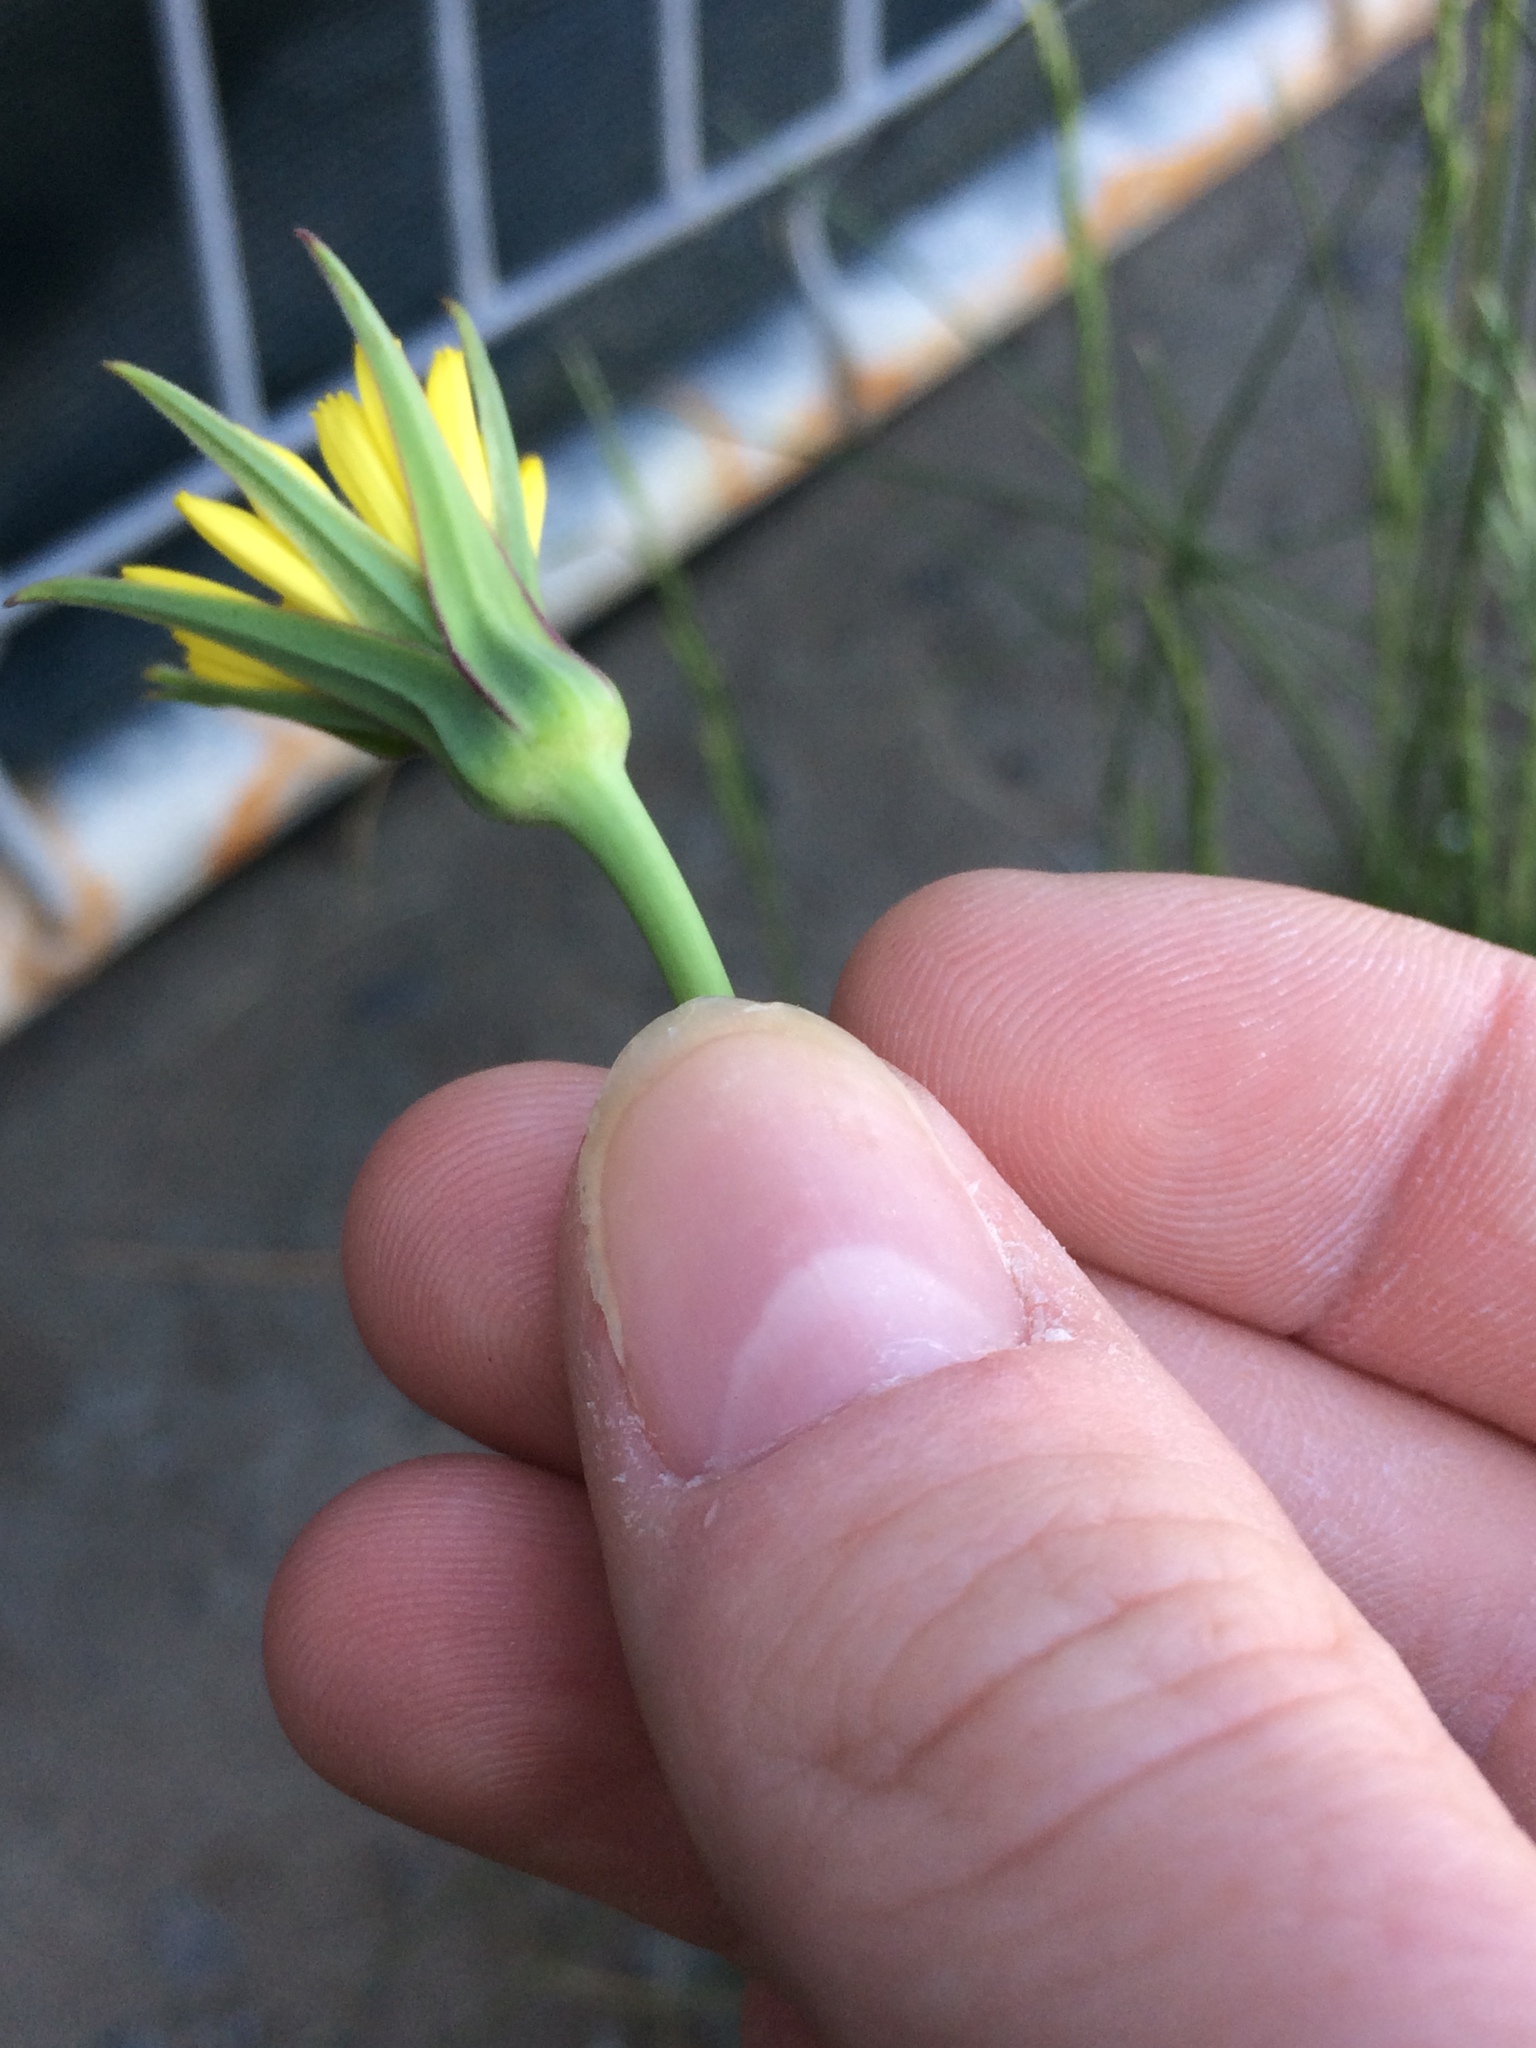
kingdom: Plantae
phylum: Tracheophyta
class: Magnoliopsida
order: Asterales
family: Asteraceae
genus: Tragopogon
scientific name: Tragopogon pratensis
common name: Goat's-beard
